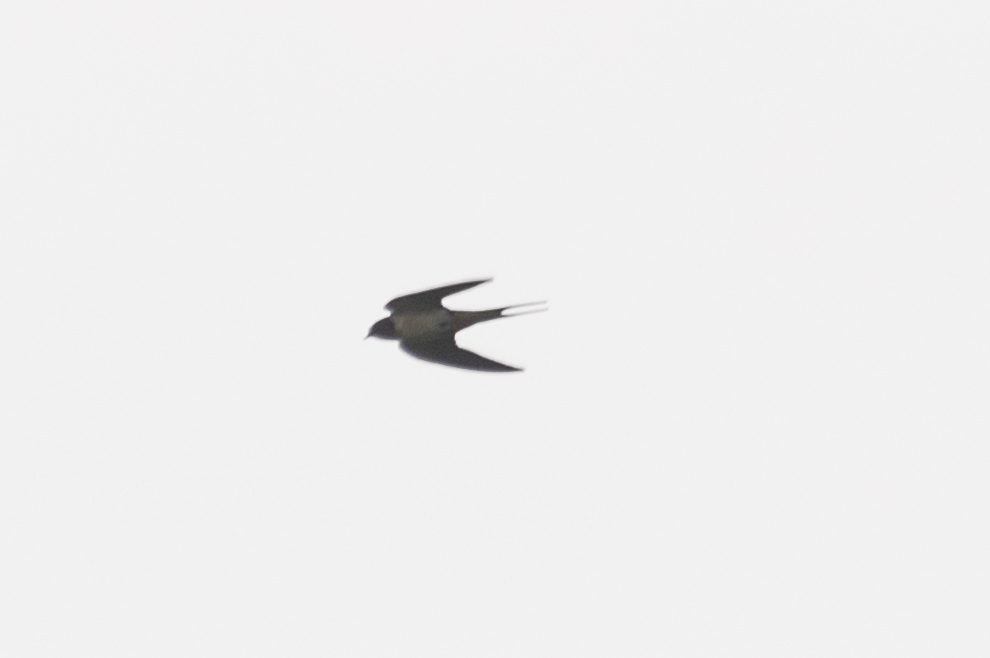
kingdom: Animalia
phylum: Chordata
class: Aves
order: Passeriformes
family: Hirundinidae
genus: Hirundo
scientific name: Hirundo rustica
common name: Barn swallow
